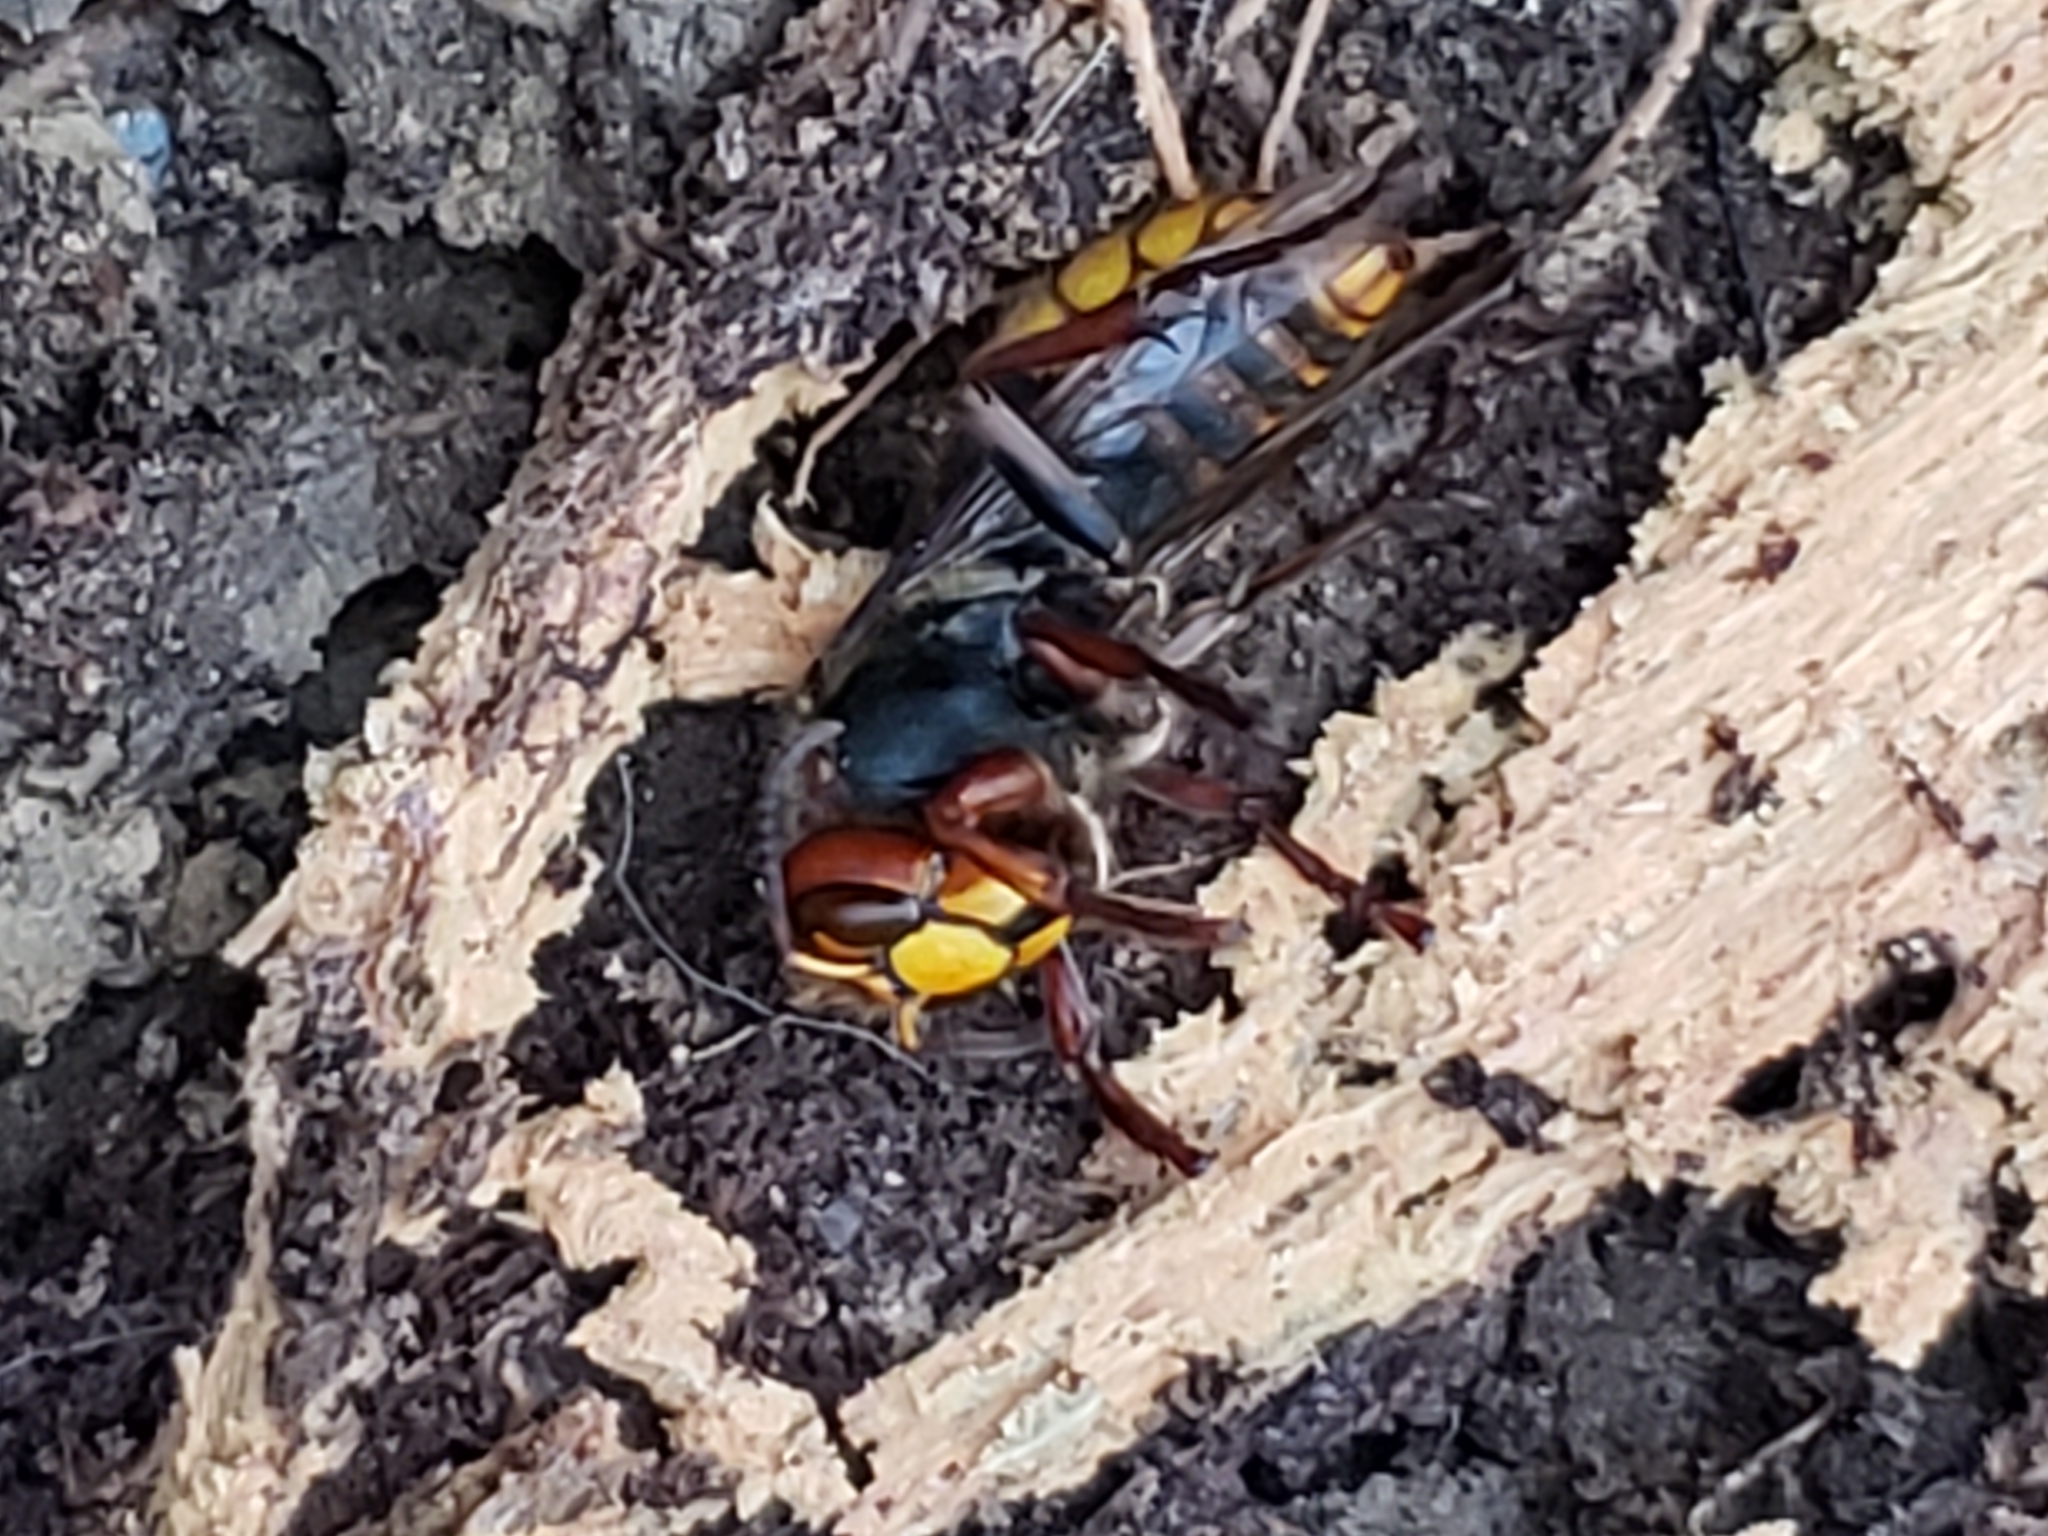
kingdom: Animalia
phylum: Arthropoda
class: Insecta
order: Hymenoptera
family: Vespidae
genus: Vespa
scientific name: Vespa crabro
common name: Hornet
